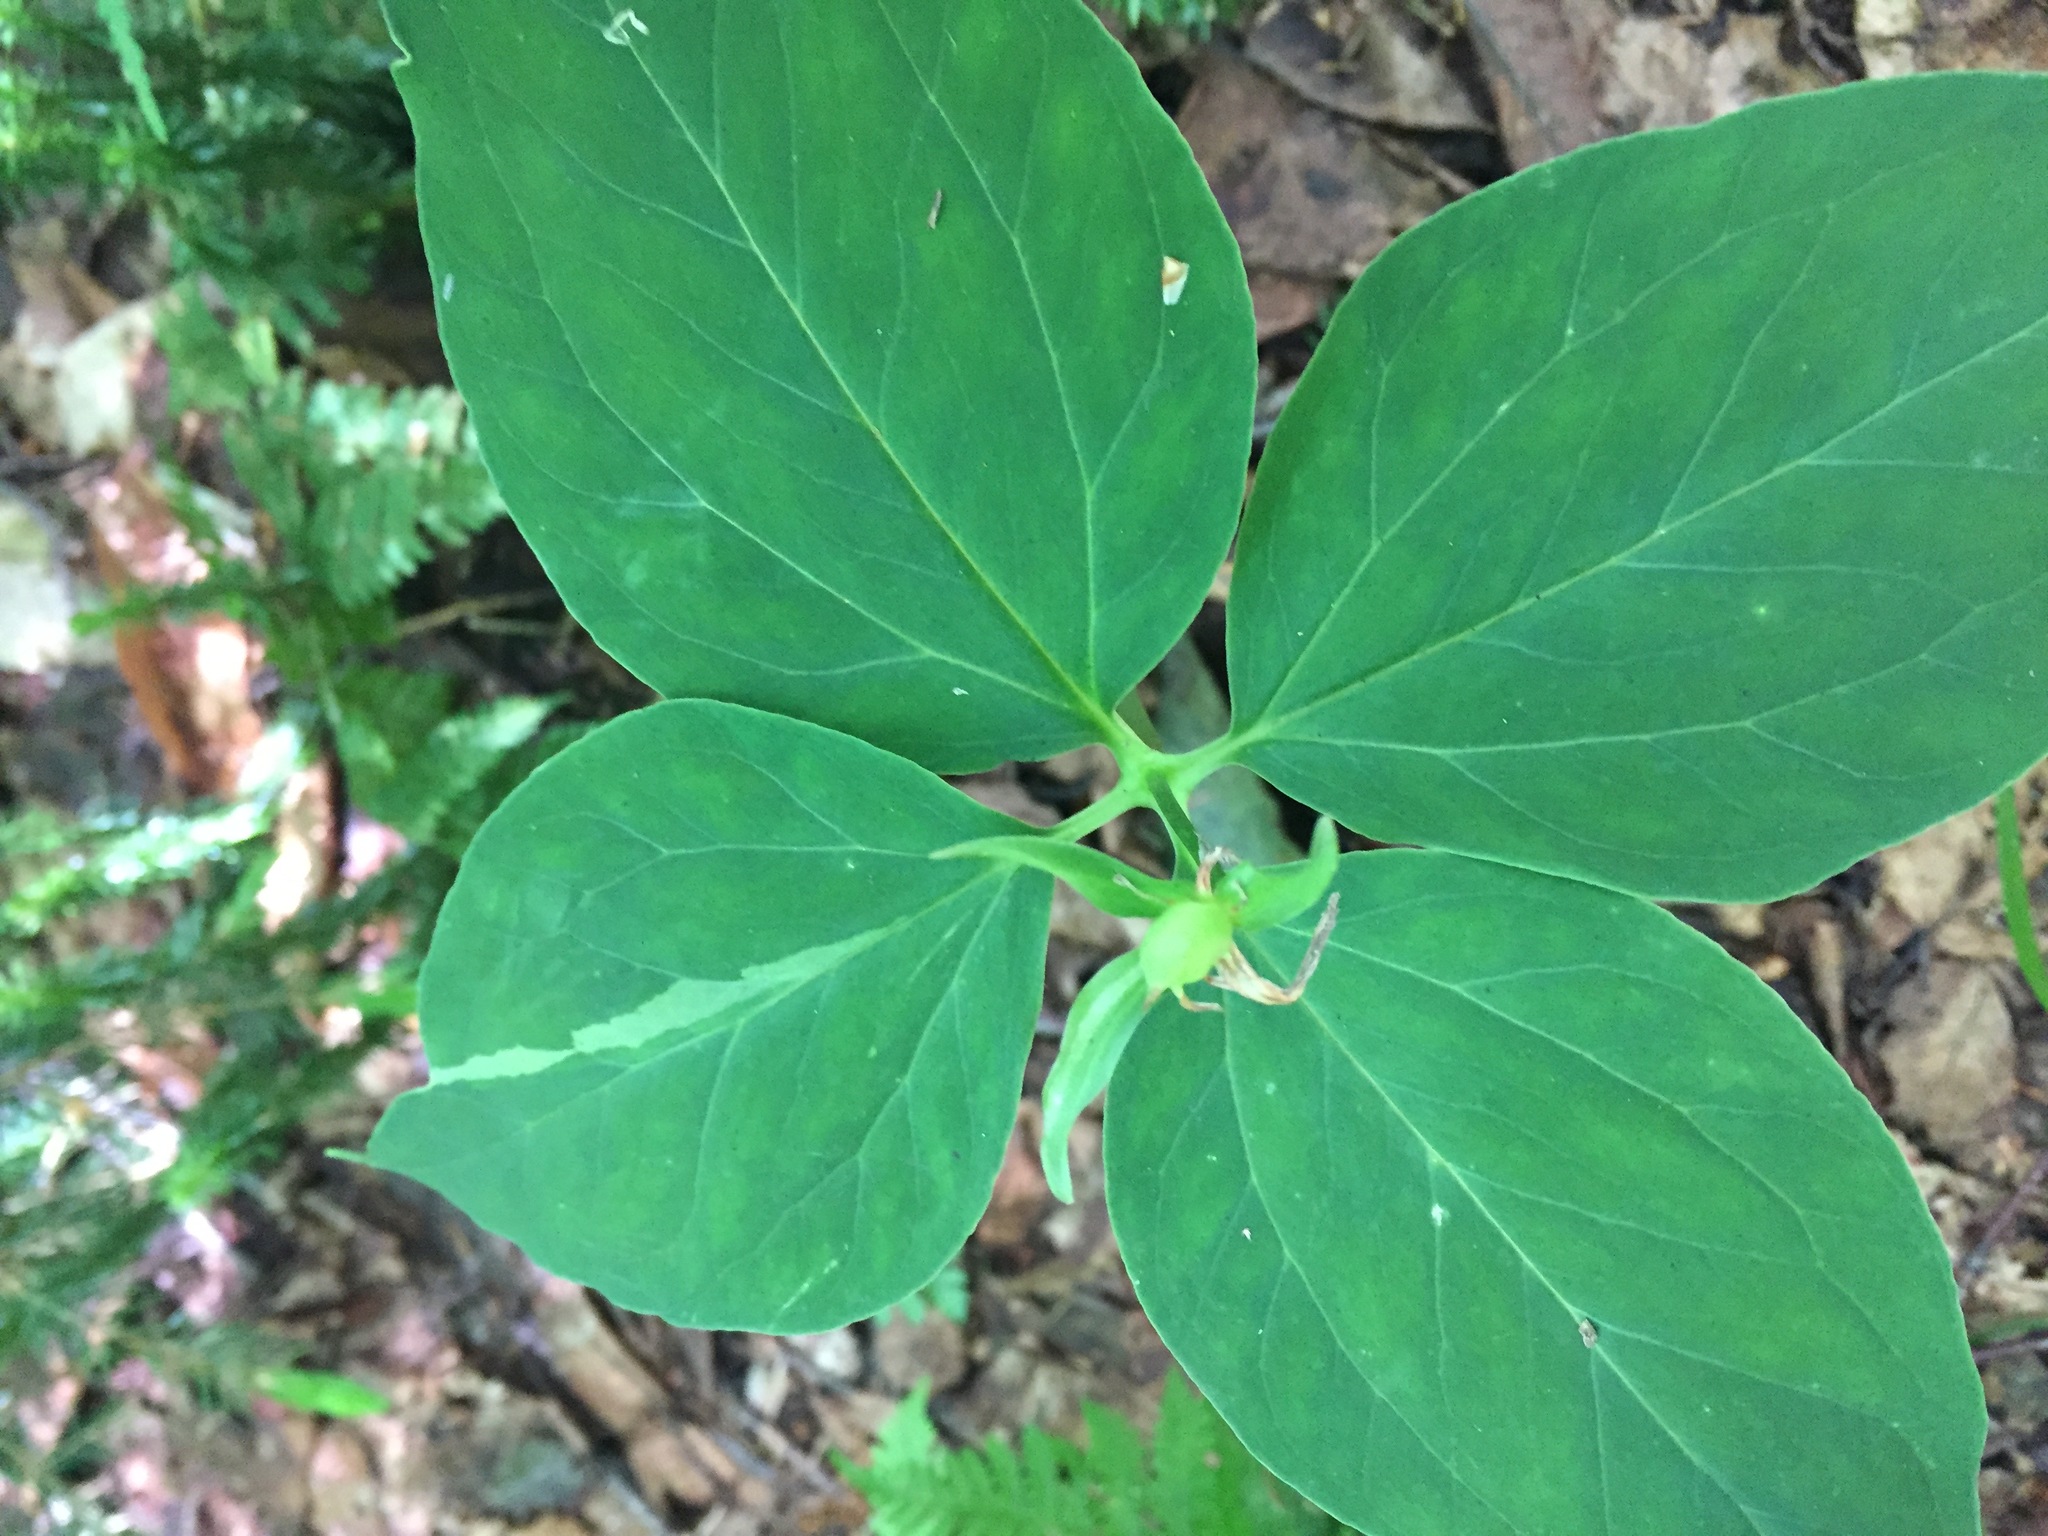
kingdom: Plantae
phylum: Tracheophyta
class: Liliopsida
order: Liliales
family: Melanthiaceae
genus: Trillium
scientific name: Trillium undulatum
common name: Paint trillium
